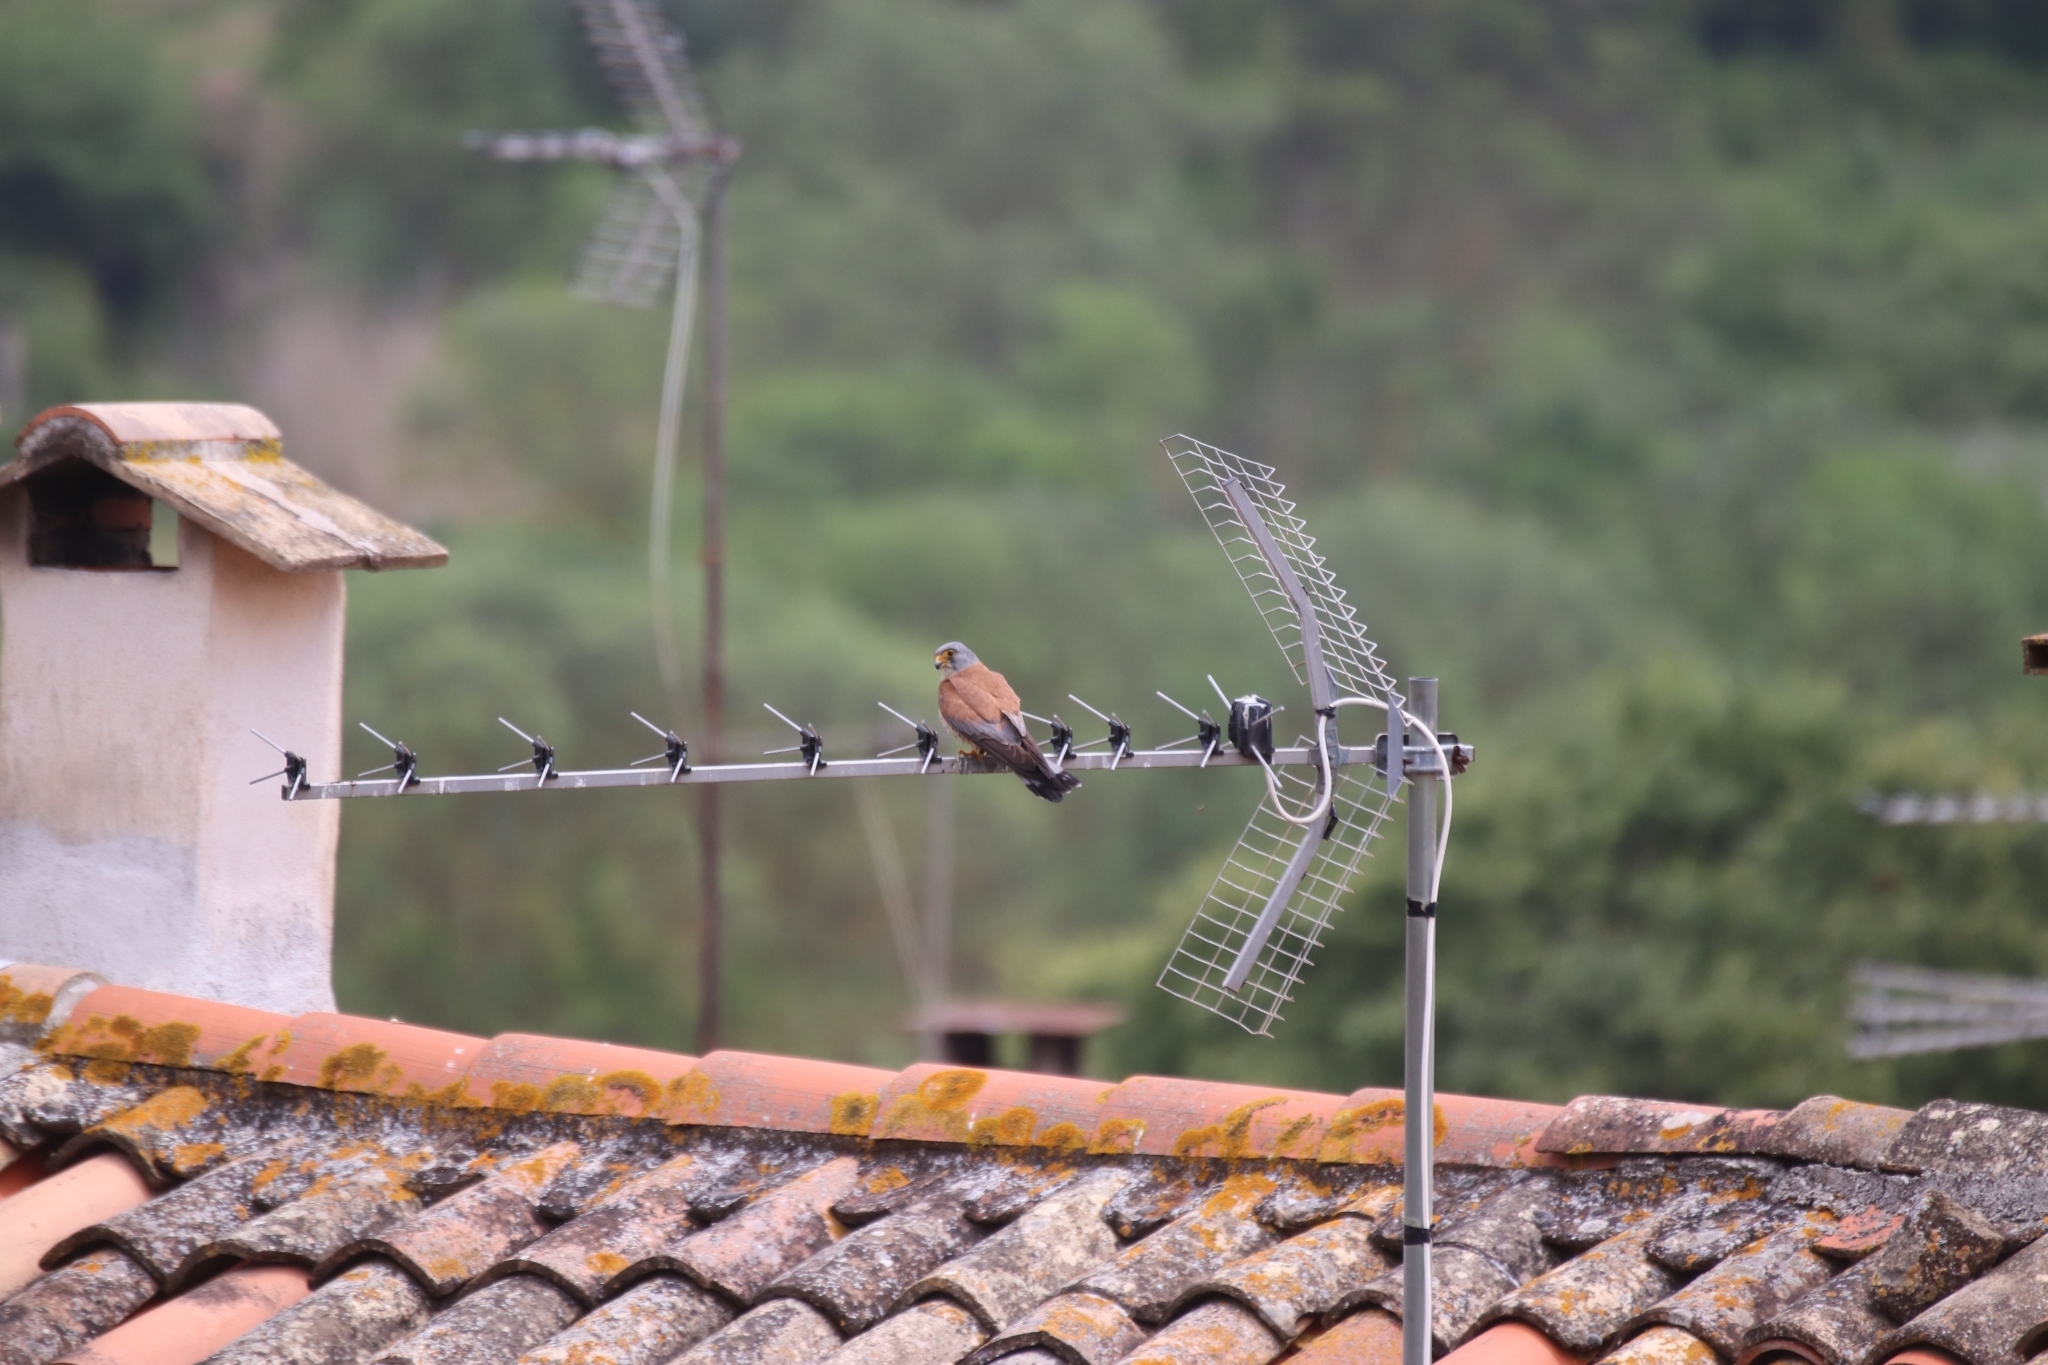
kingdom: Animalia
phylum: Chordata
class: Aves
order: Falconiformes
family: Falconidae
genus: Falco
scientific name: Falco naumanni
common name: Lesser kestrel
